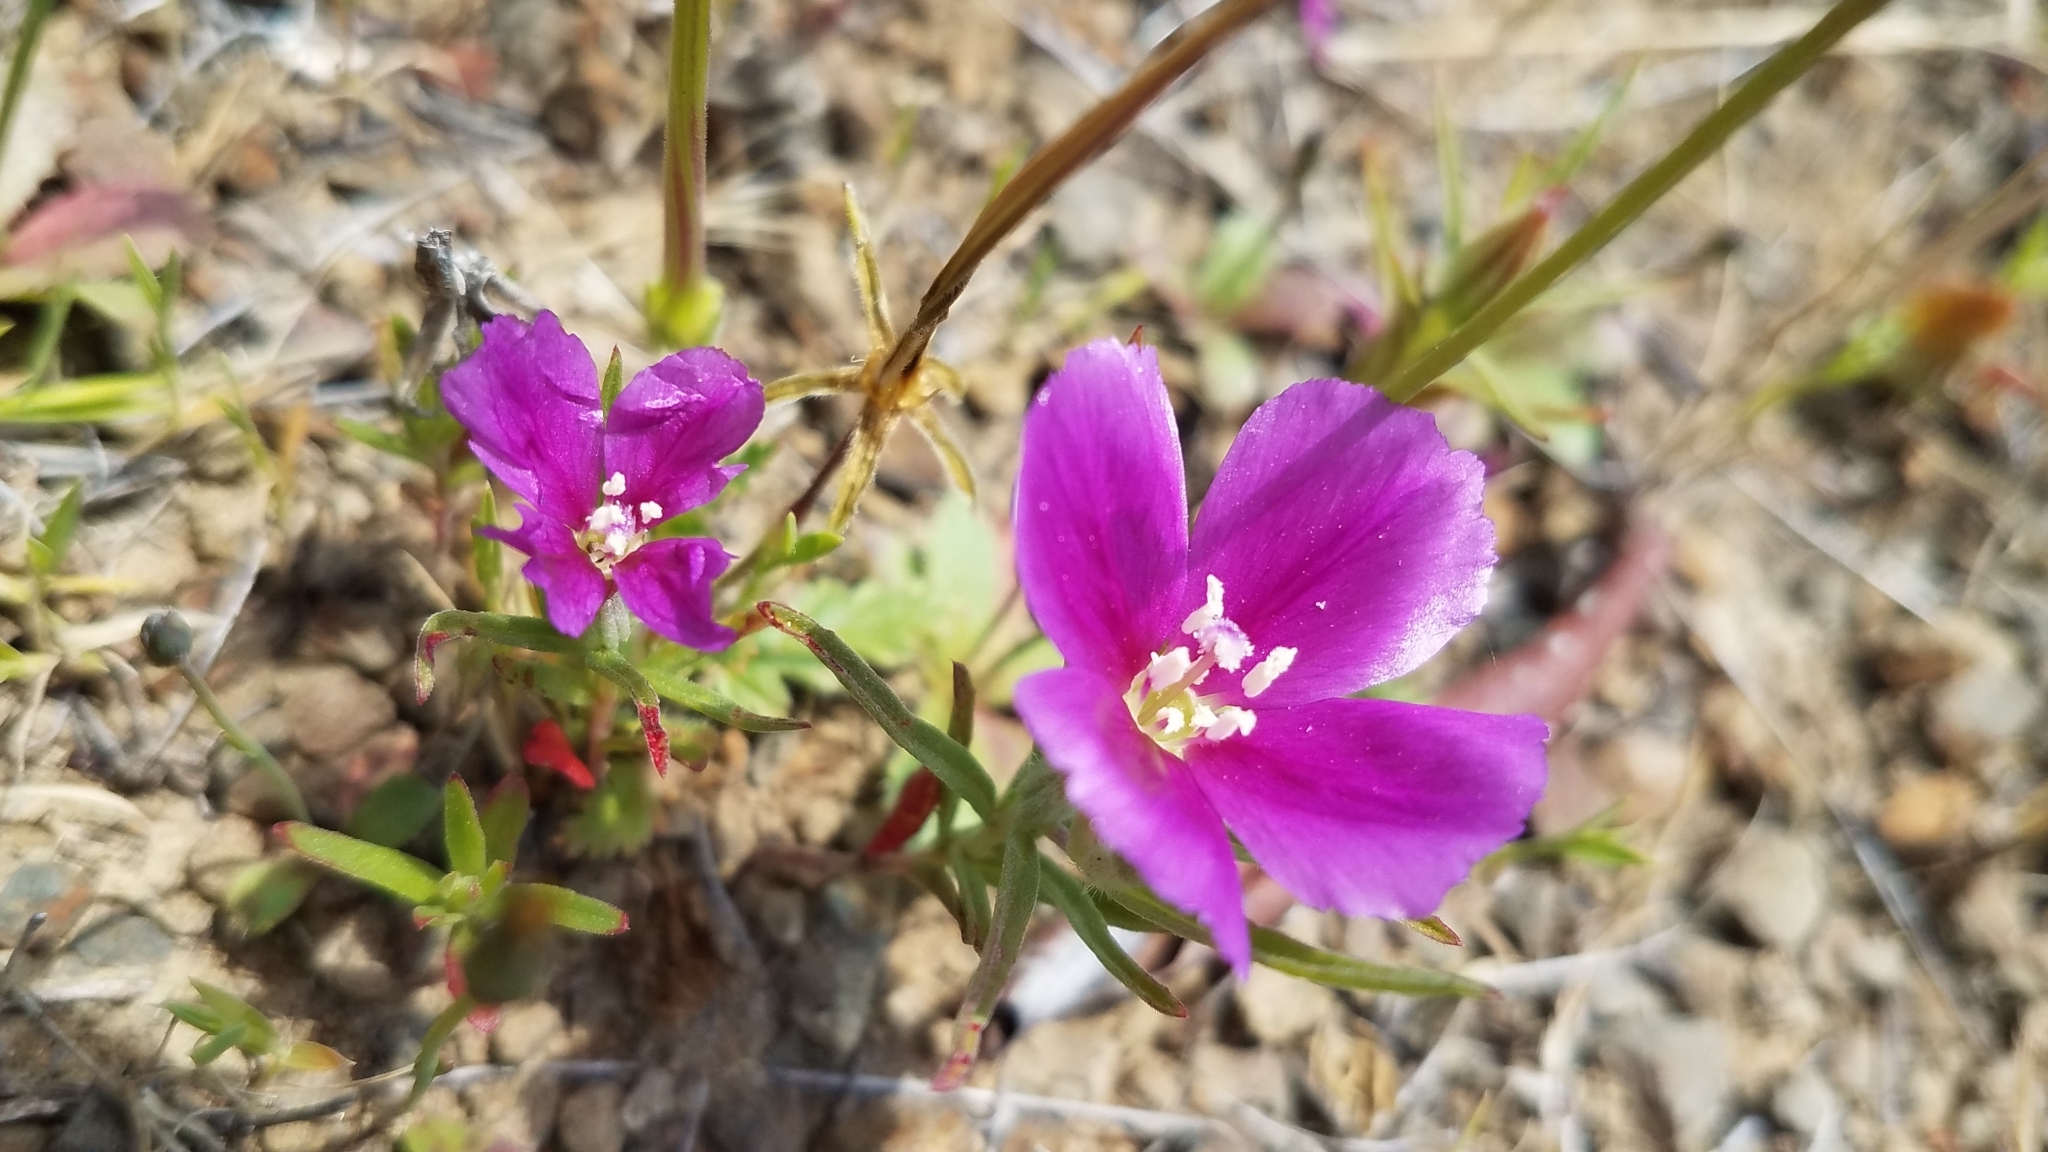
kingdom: Plantae
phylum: Tracheophyta
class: Magnoliopsida
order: Myrtales
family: Onagraceae
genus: Clarkia
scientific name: Clarkia purpurea
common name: Purple clarkia
